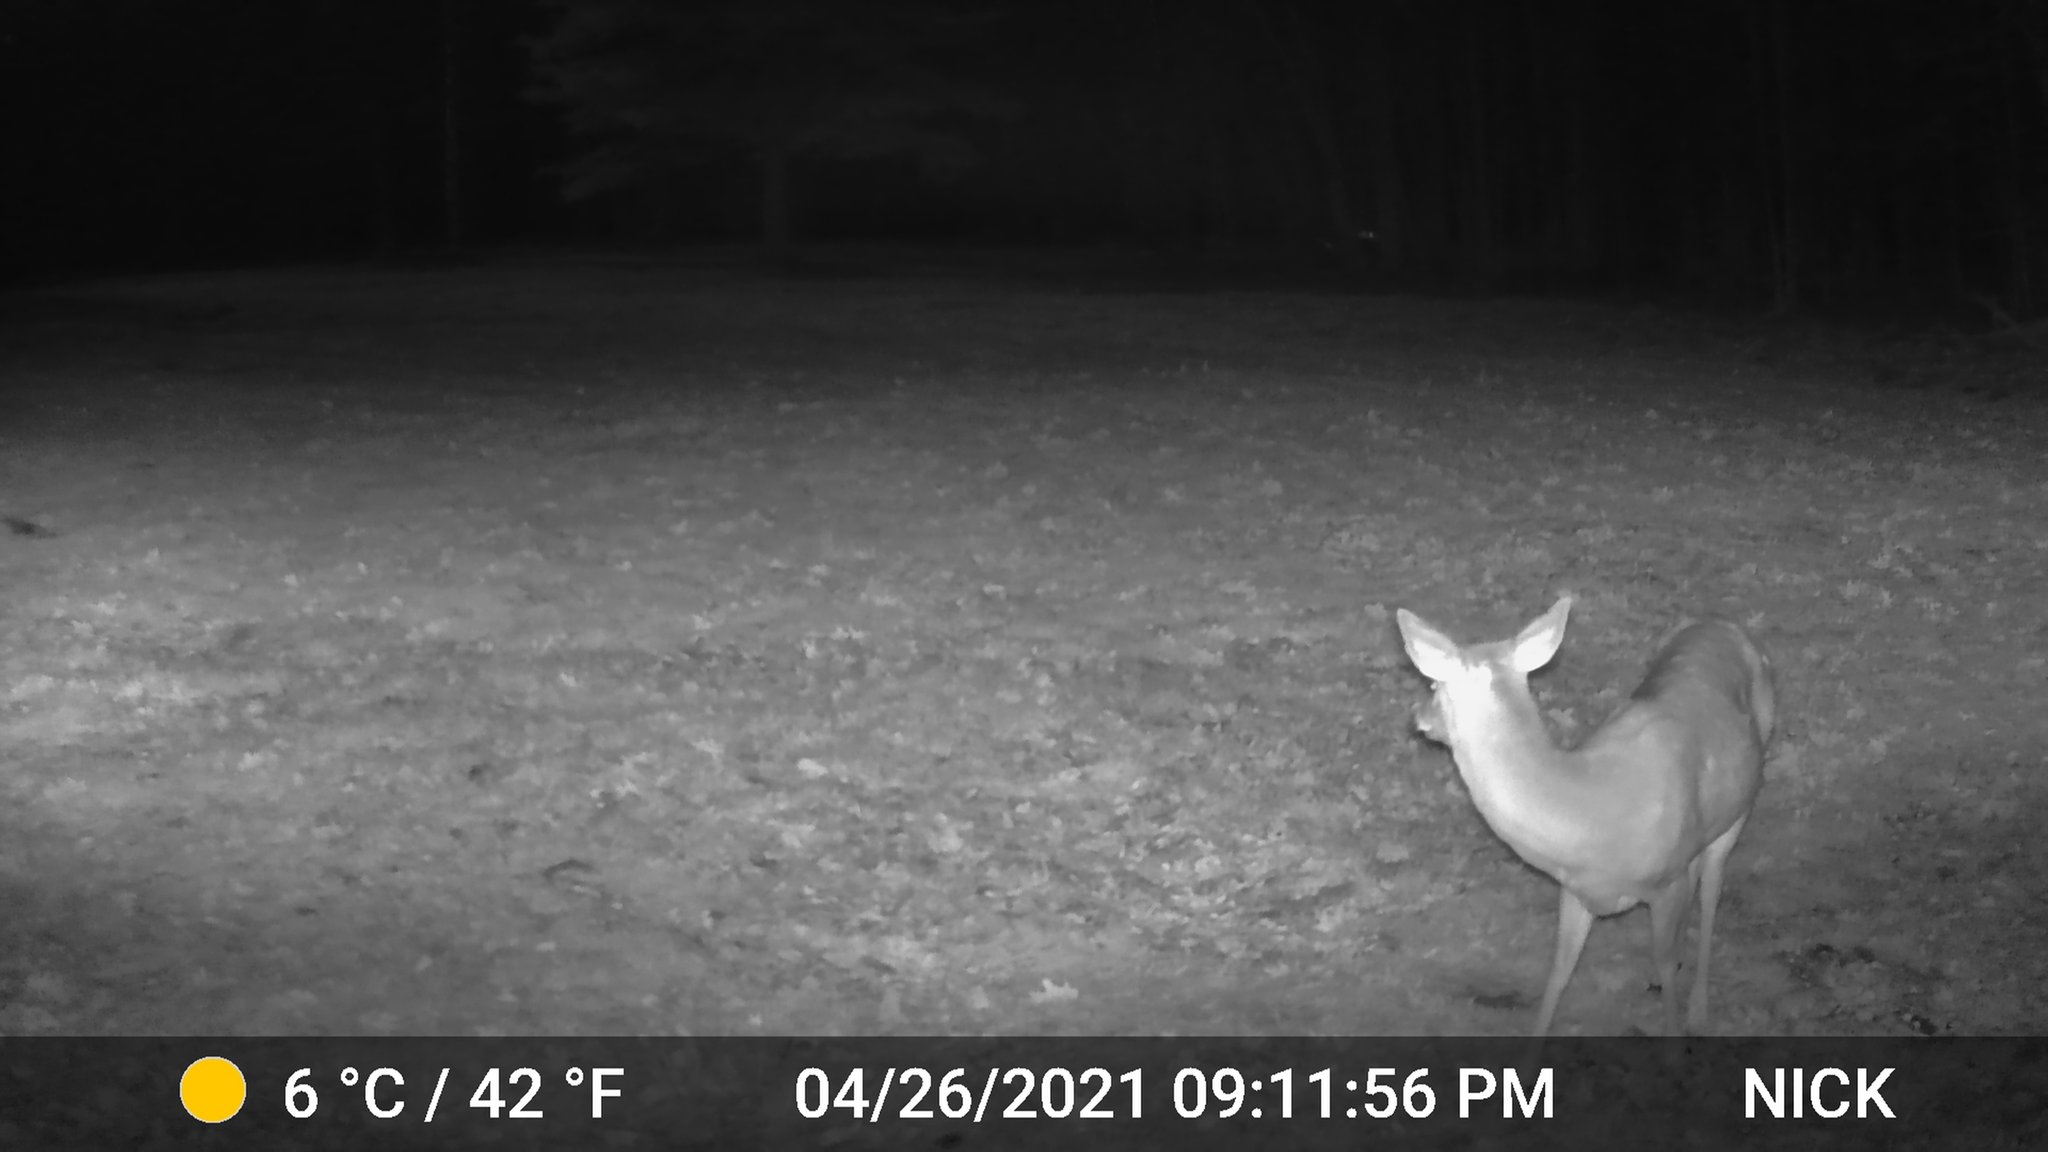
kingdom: Animalia
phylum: Chordata
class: Mammalia
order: Artiodactyla
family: Cervidae
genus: Odocoileus
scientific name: Odocoileus virginianus
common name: White-tailed deer
